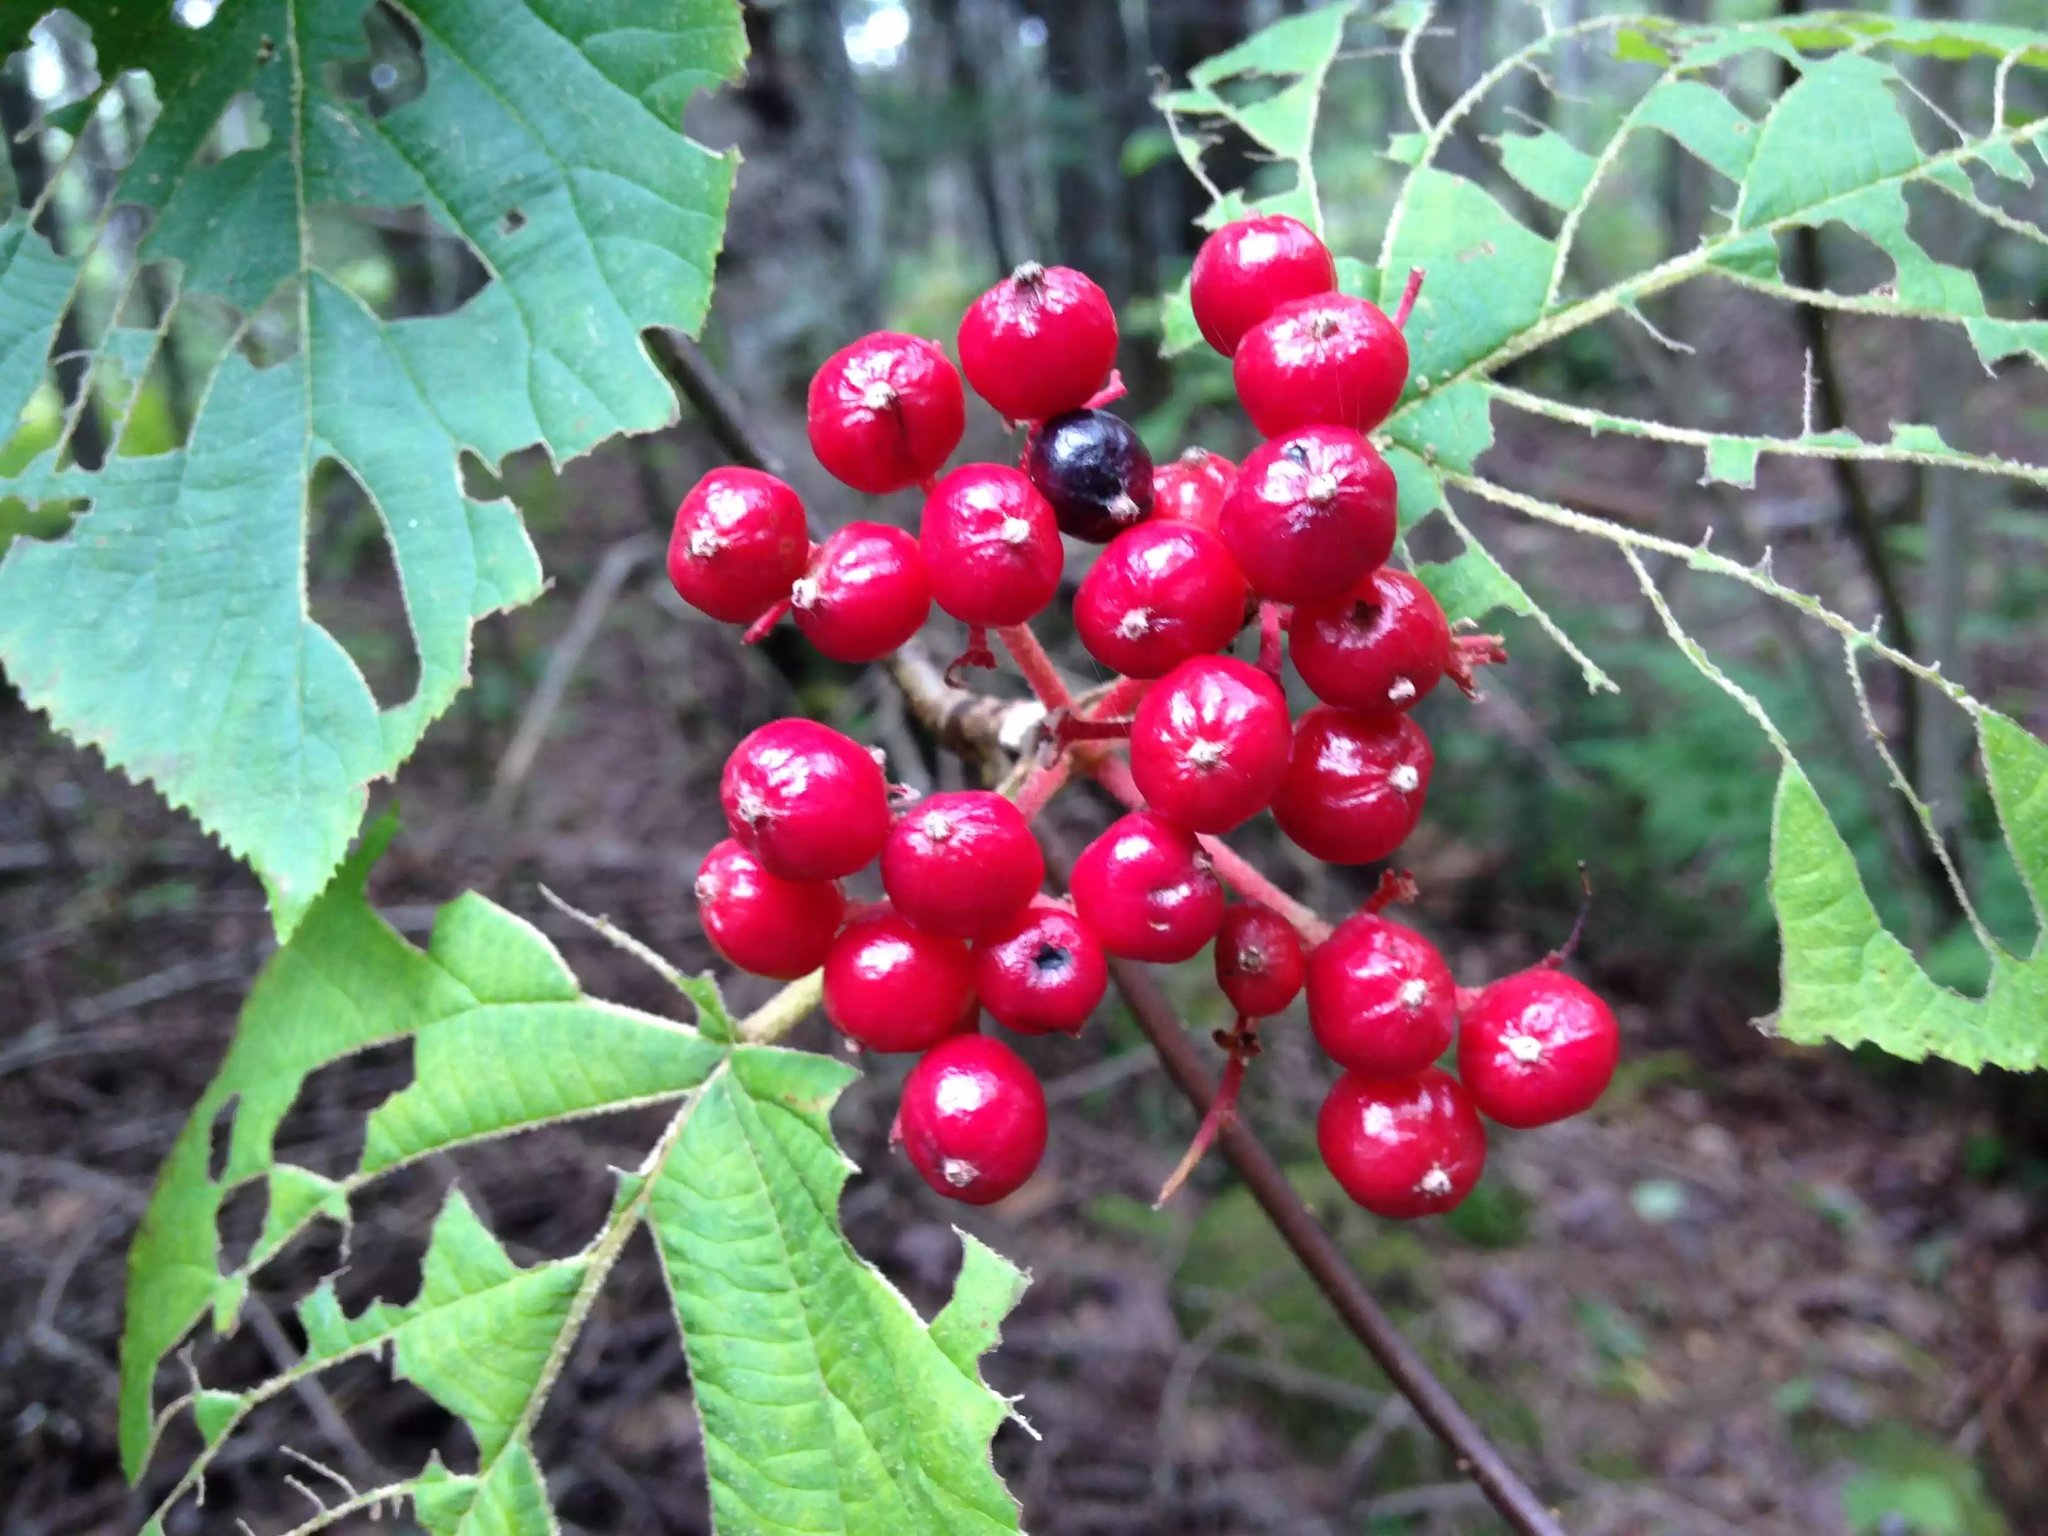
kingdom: Plantae
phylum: Tracheophyta
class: Magnoliopsida
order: Dipsacales
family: Viburnaceae
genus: Viburnum
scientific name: Viburnum lantanoides
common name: Hobblebush
